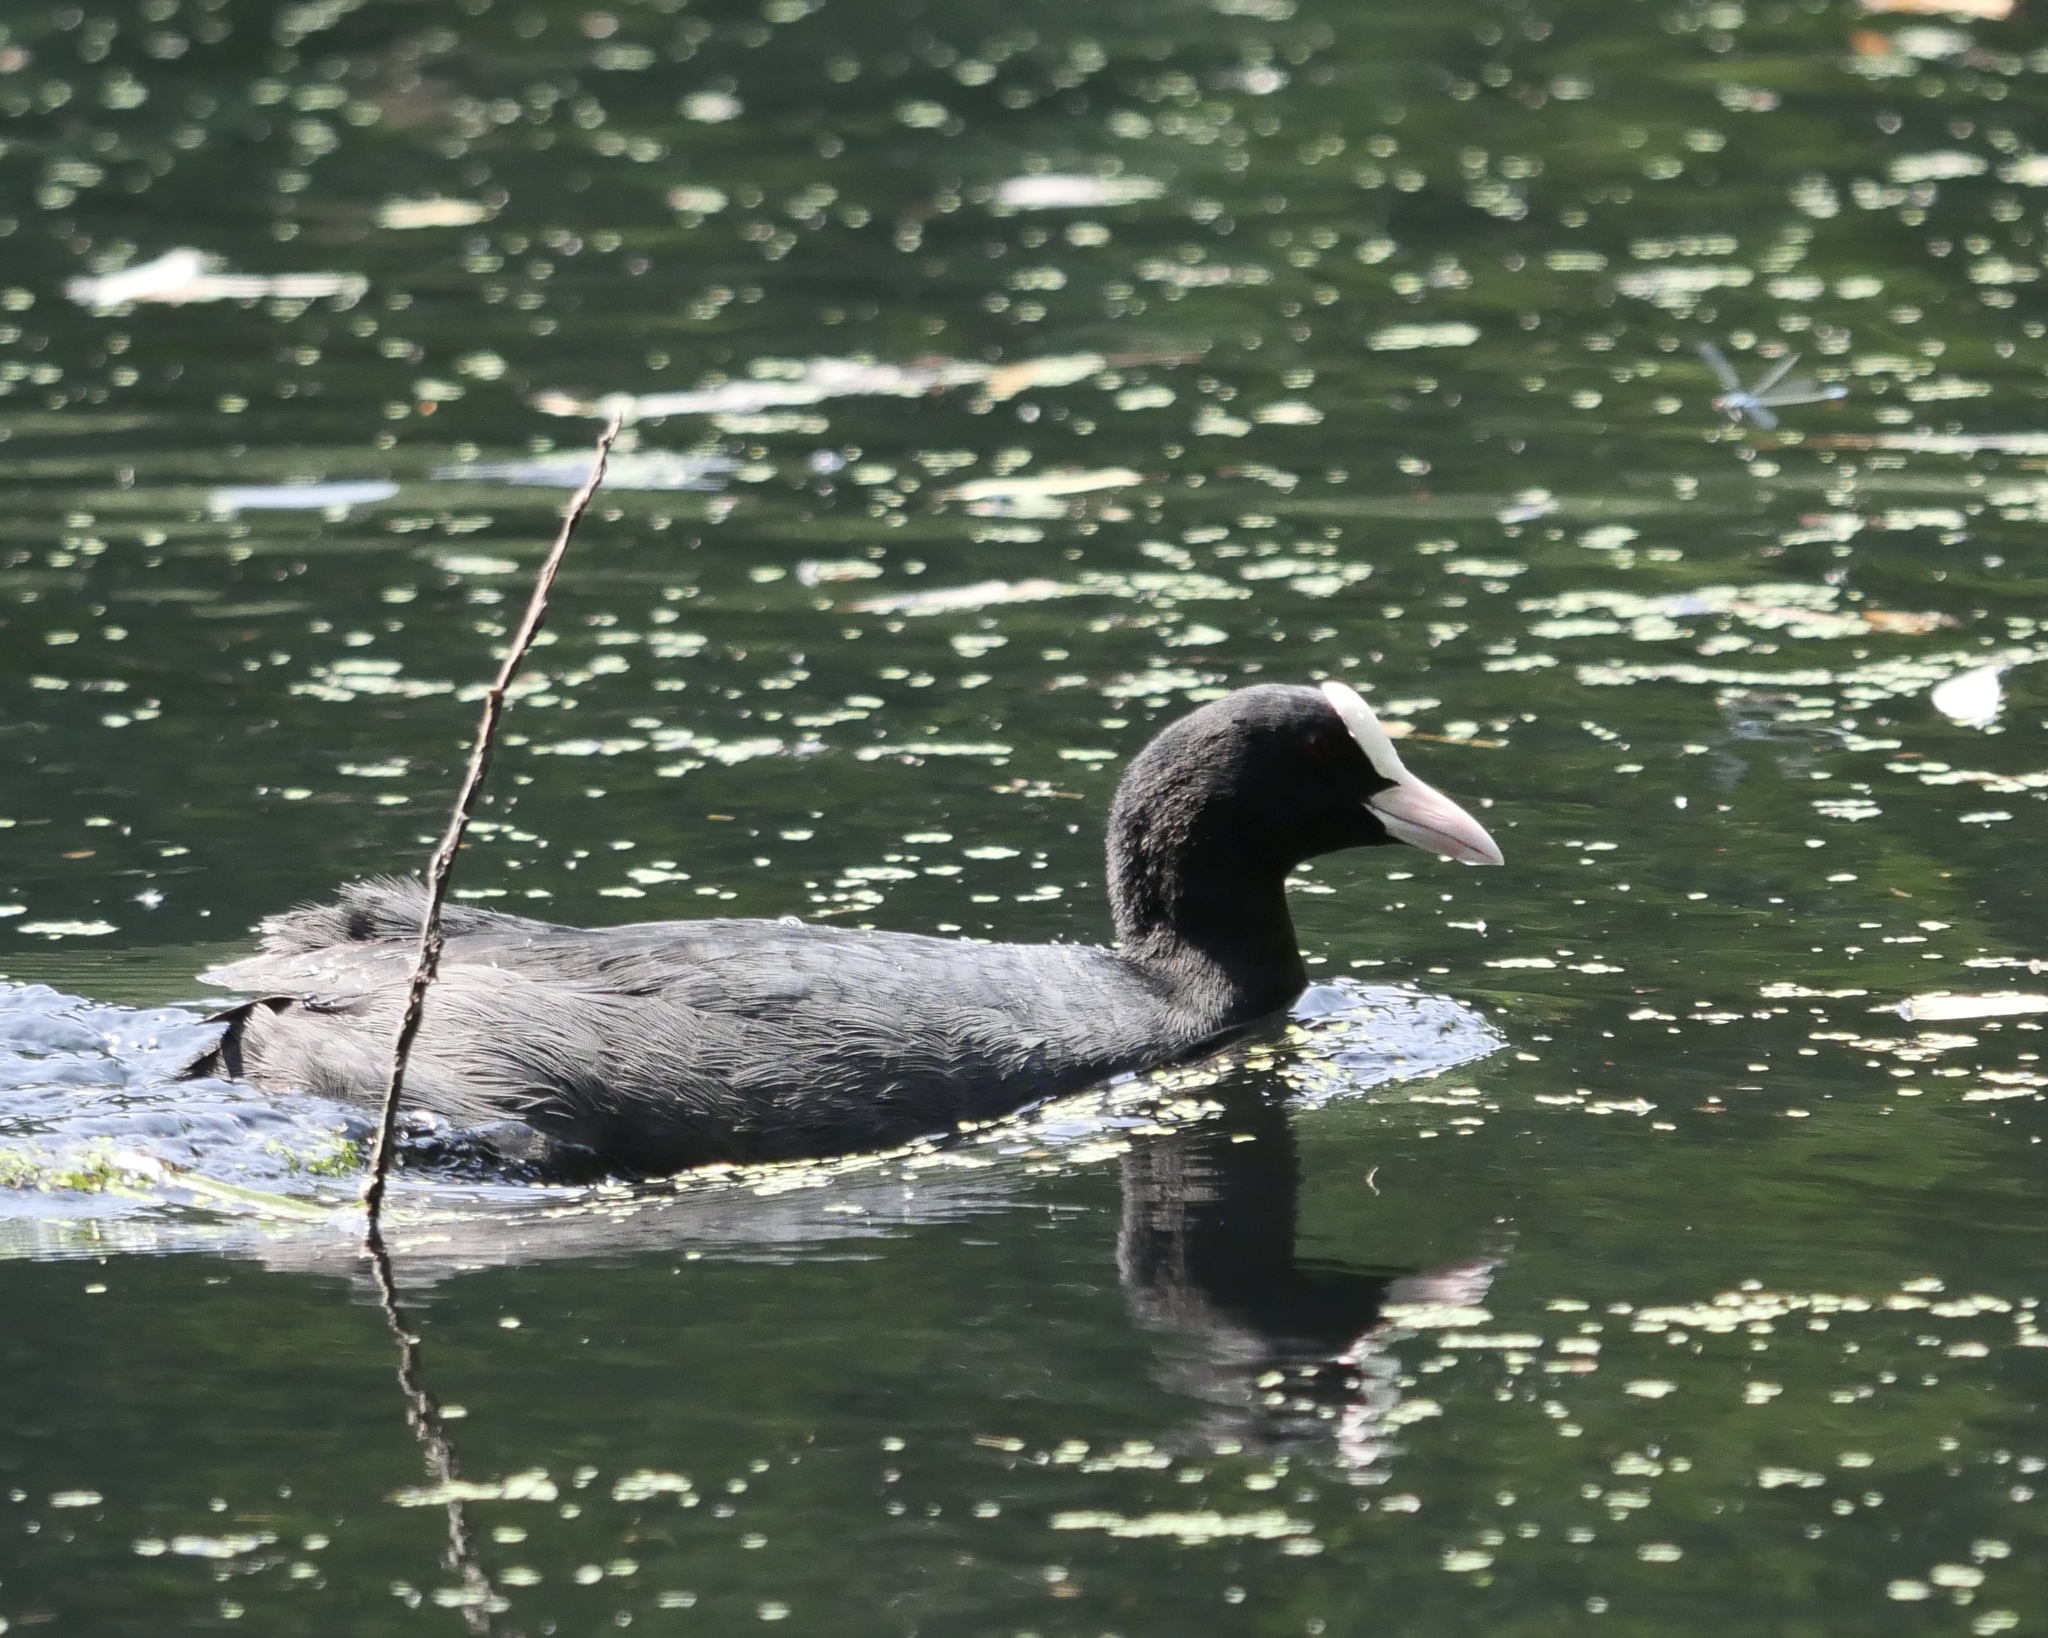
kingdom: Animalia
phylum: Chordata
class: Aves
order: Gruiformes
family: Rallidae
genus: Fulica
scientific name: Fulica atra
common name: Eurasian coot
